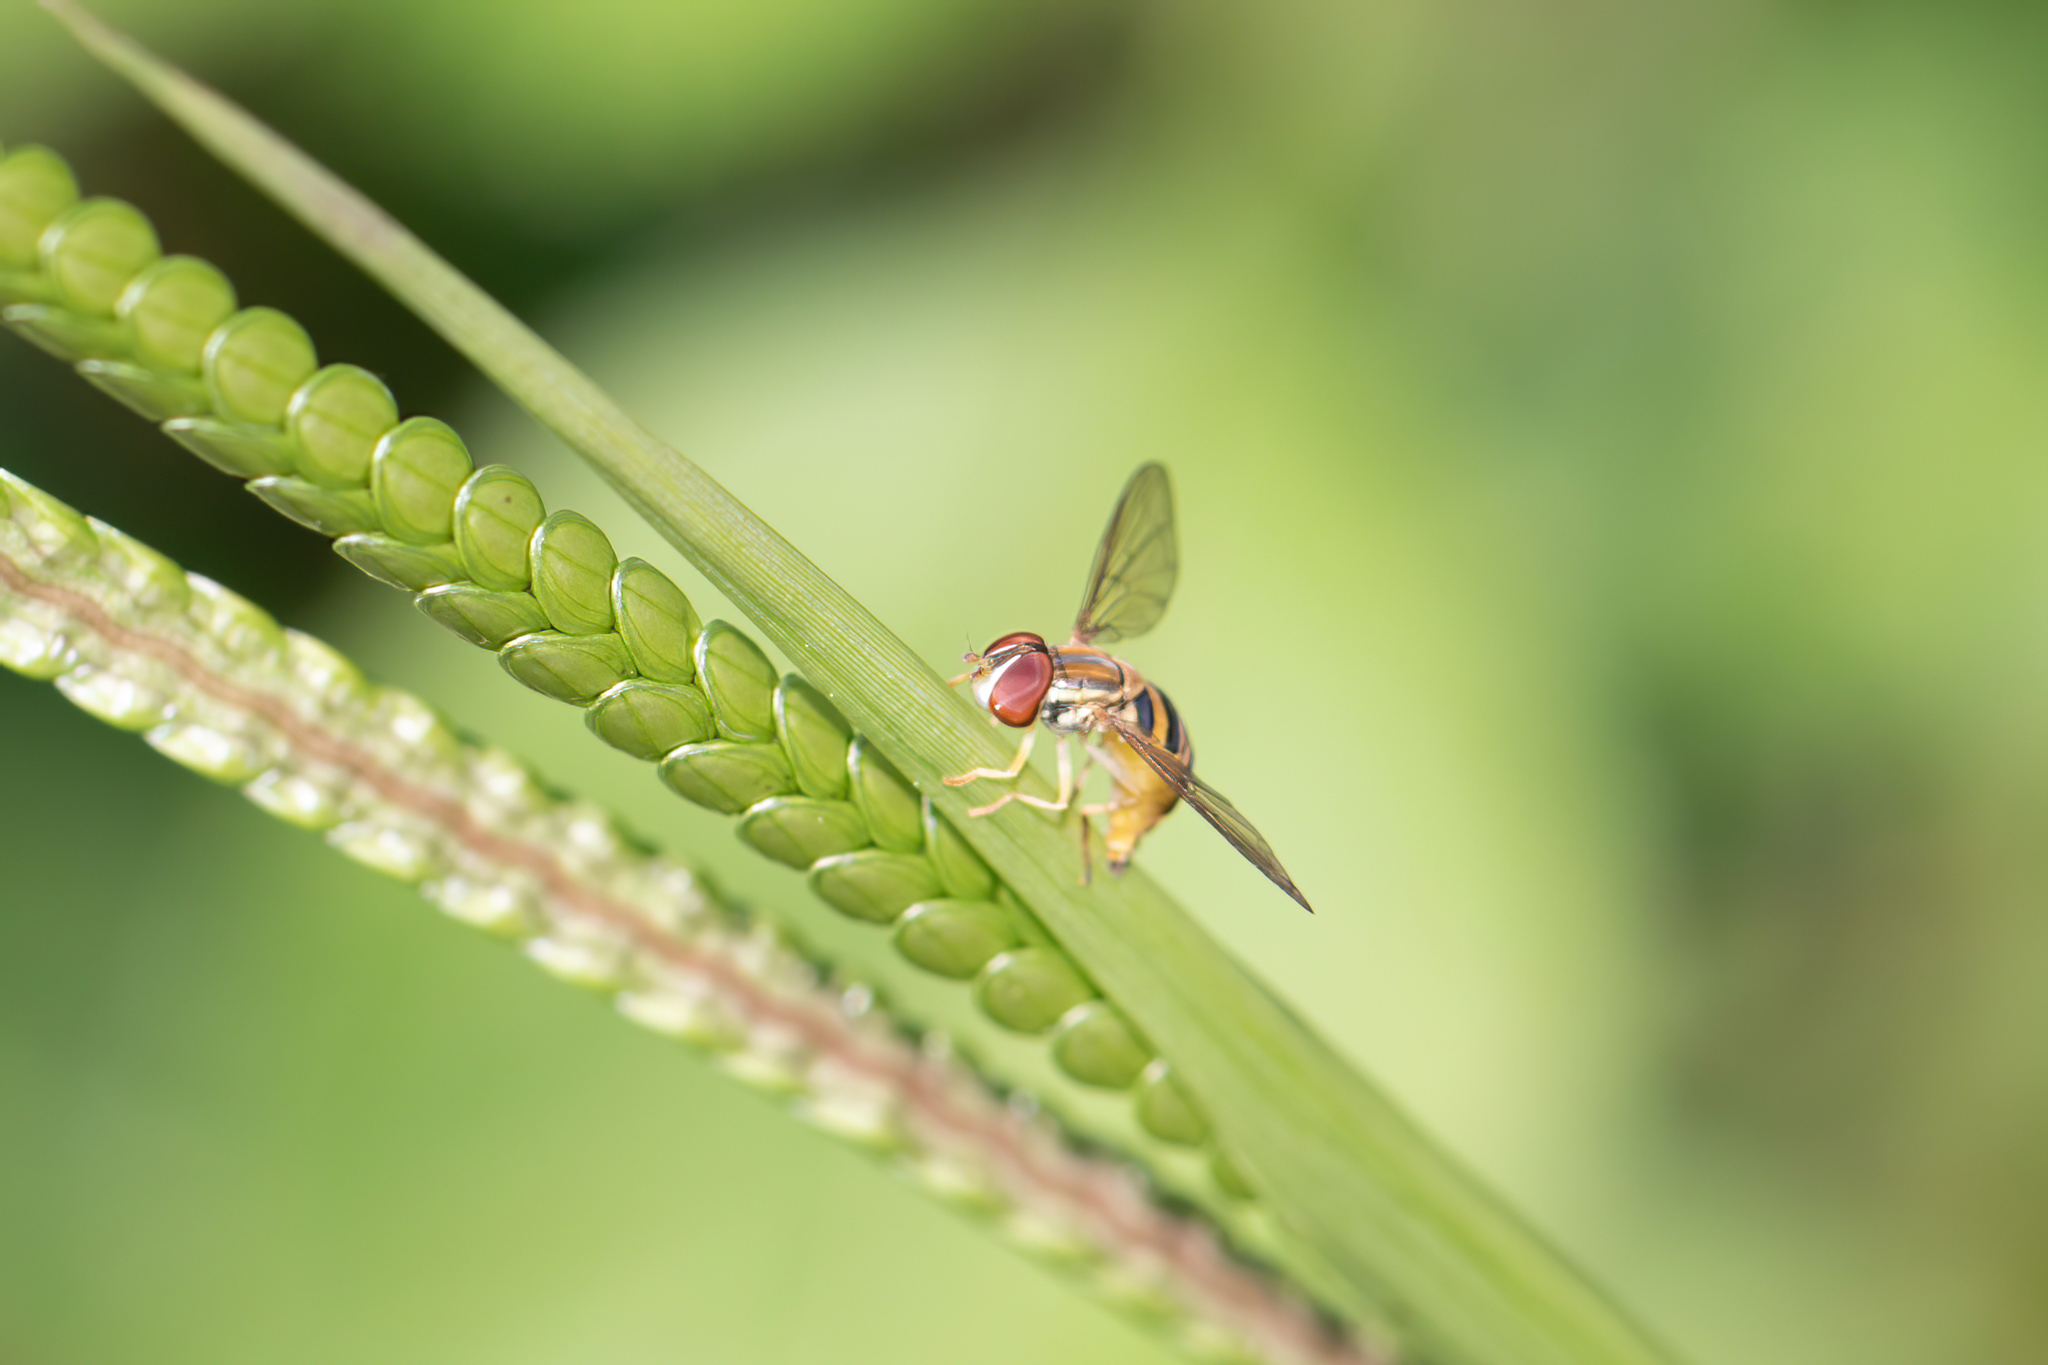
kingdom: Animalia
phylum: Arthropoda
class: Insecta
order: Diptera
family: Syrphidae
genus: Toxomerus
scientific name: Toxomerus politus
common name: Maize calligrapher
